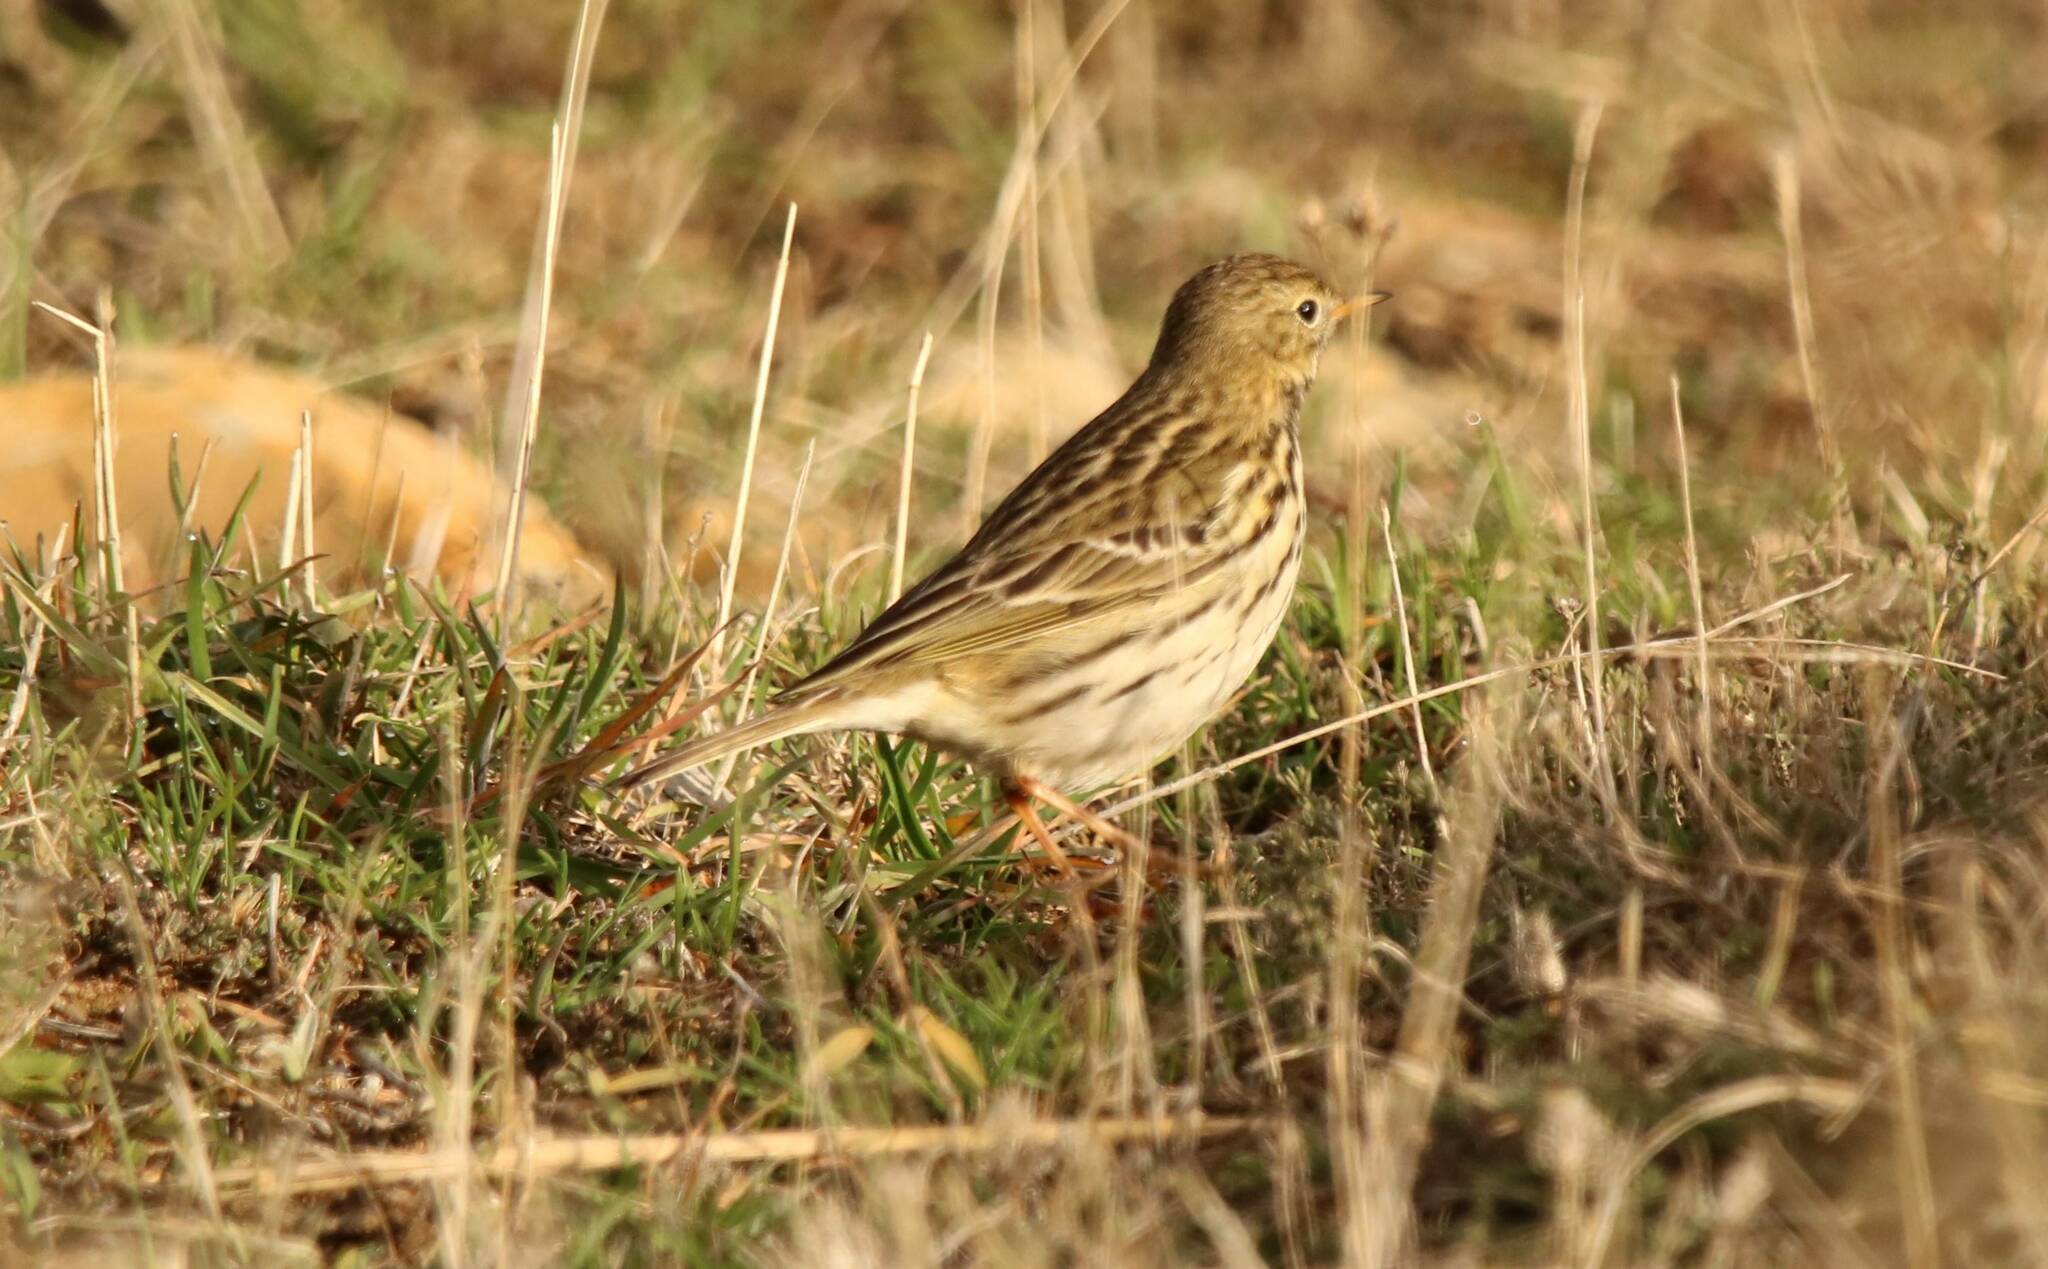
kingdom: Animalia
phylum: Chordata
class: Aves
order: Passeriformes
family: Motacillidae
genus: Anthus
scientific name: Anthus pratensis
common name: Meadow pipit
